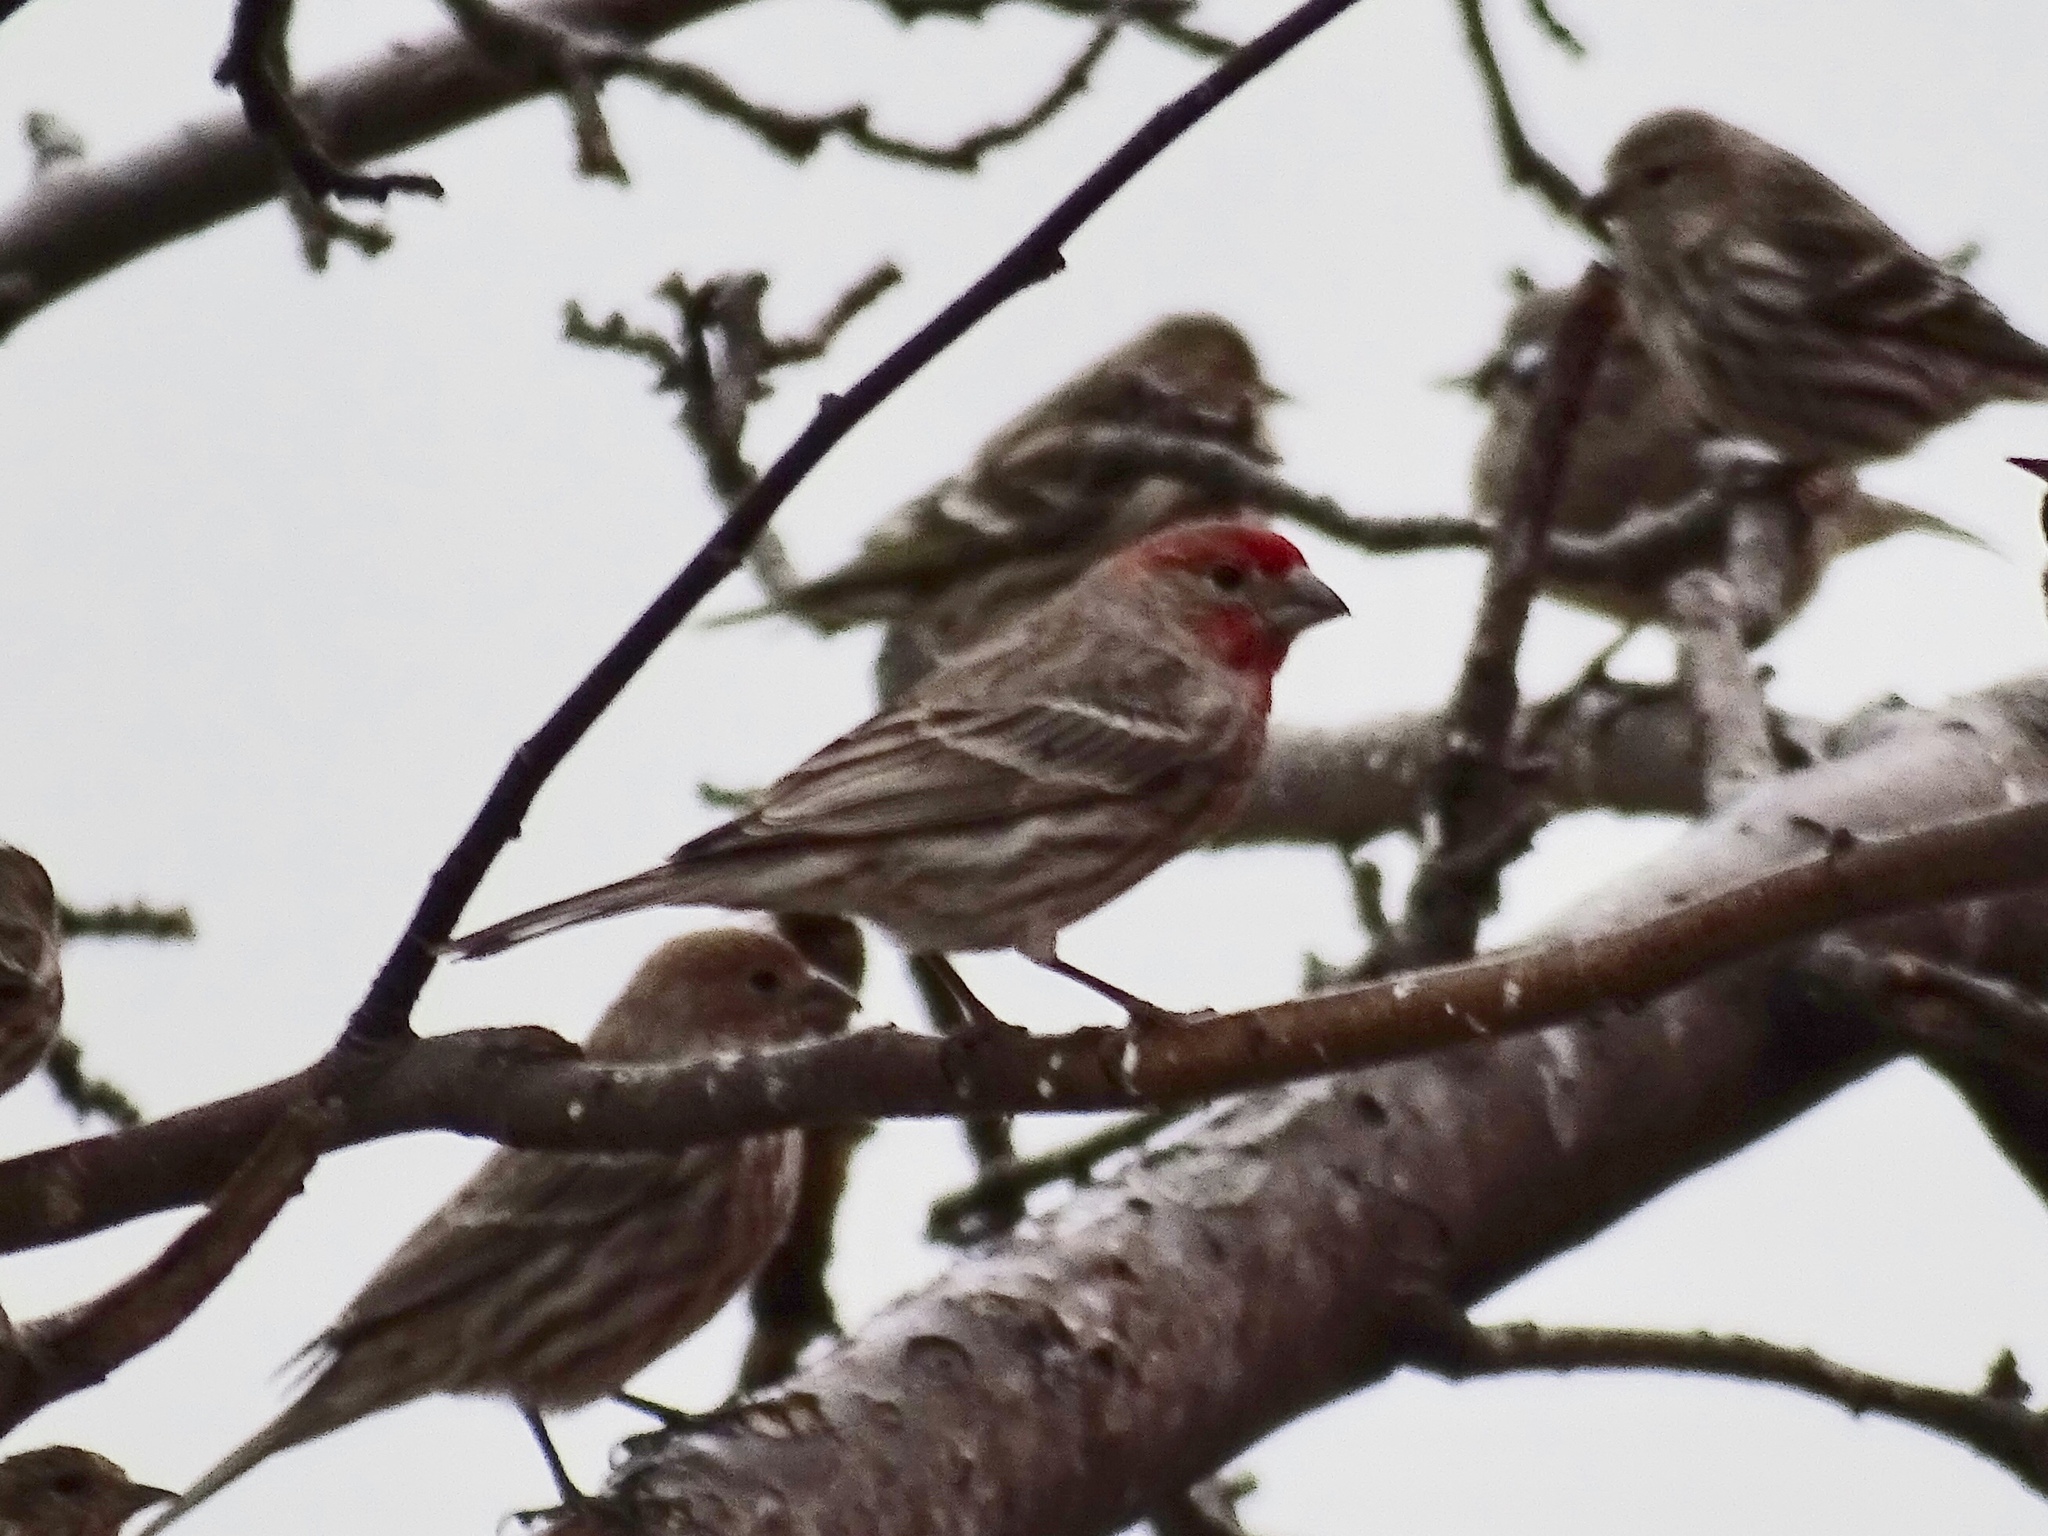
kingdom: Animalia
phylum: Chordata
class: Aves
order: Passeriformes
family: Fringillidae
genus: Haemorhous
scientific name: Haemorhous mexicanus
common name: House finch
